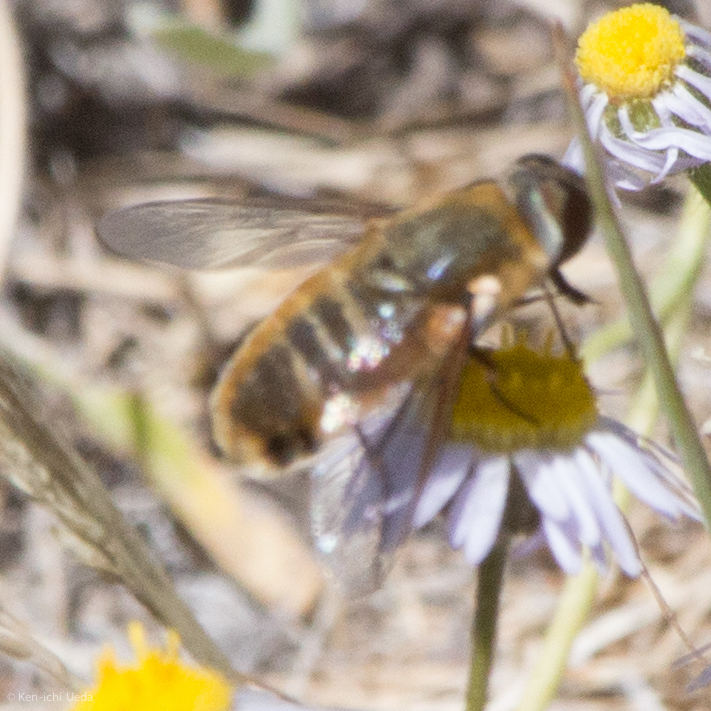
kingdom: Animalia
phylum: Arthropoda
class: Insecta
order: Diptera
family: Bombyliidae
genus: Villa
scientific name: Villa agrippina
